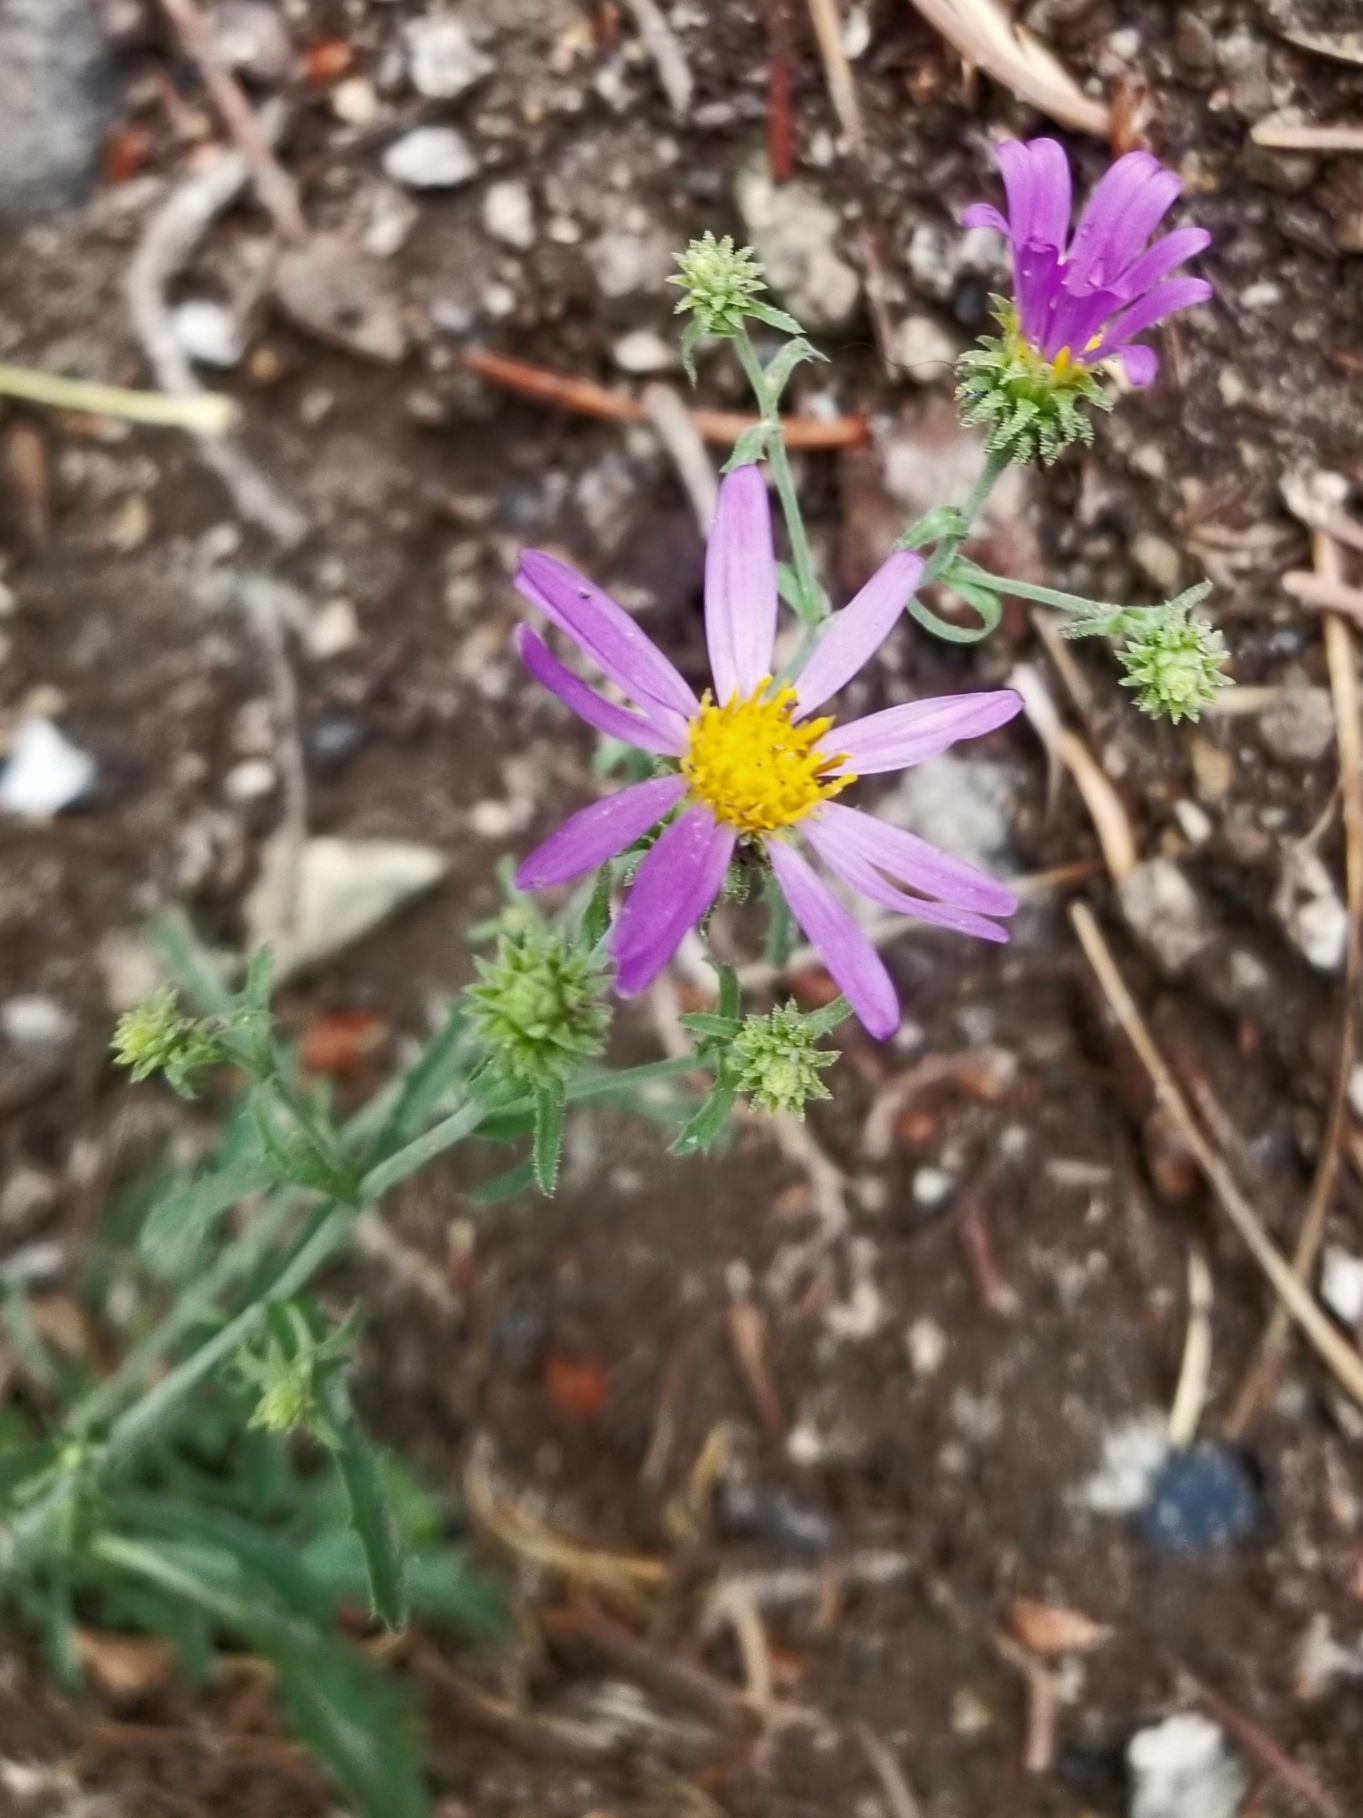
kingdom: Plantae
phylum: Tracheophyta
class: Magnoliopsida
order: Asterales
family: Asteraceae
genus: Dieteria
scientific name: Dieteria canescens
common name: Hoary-aster
